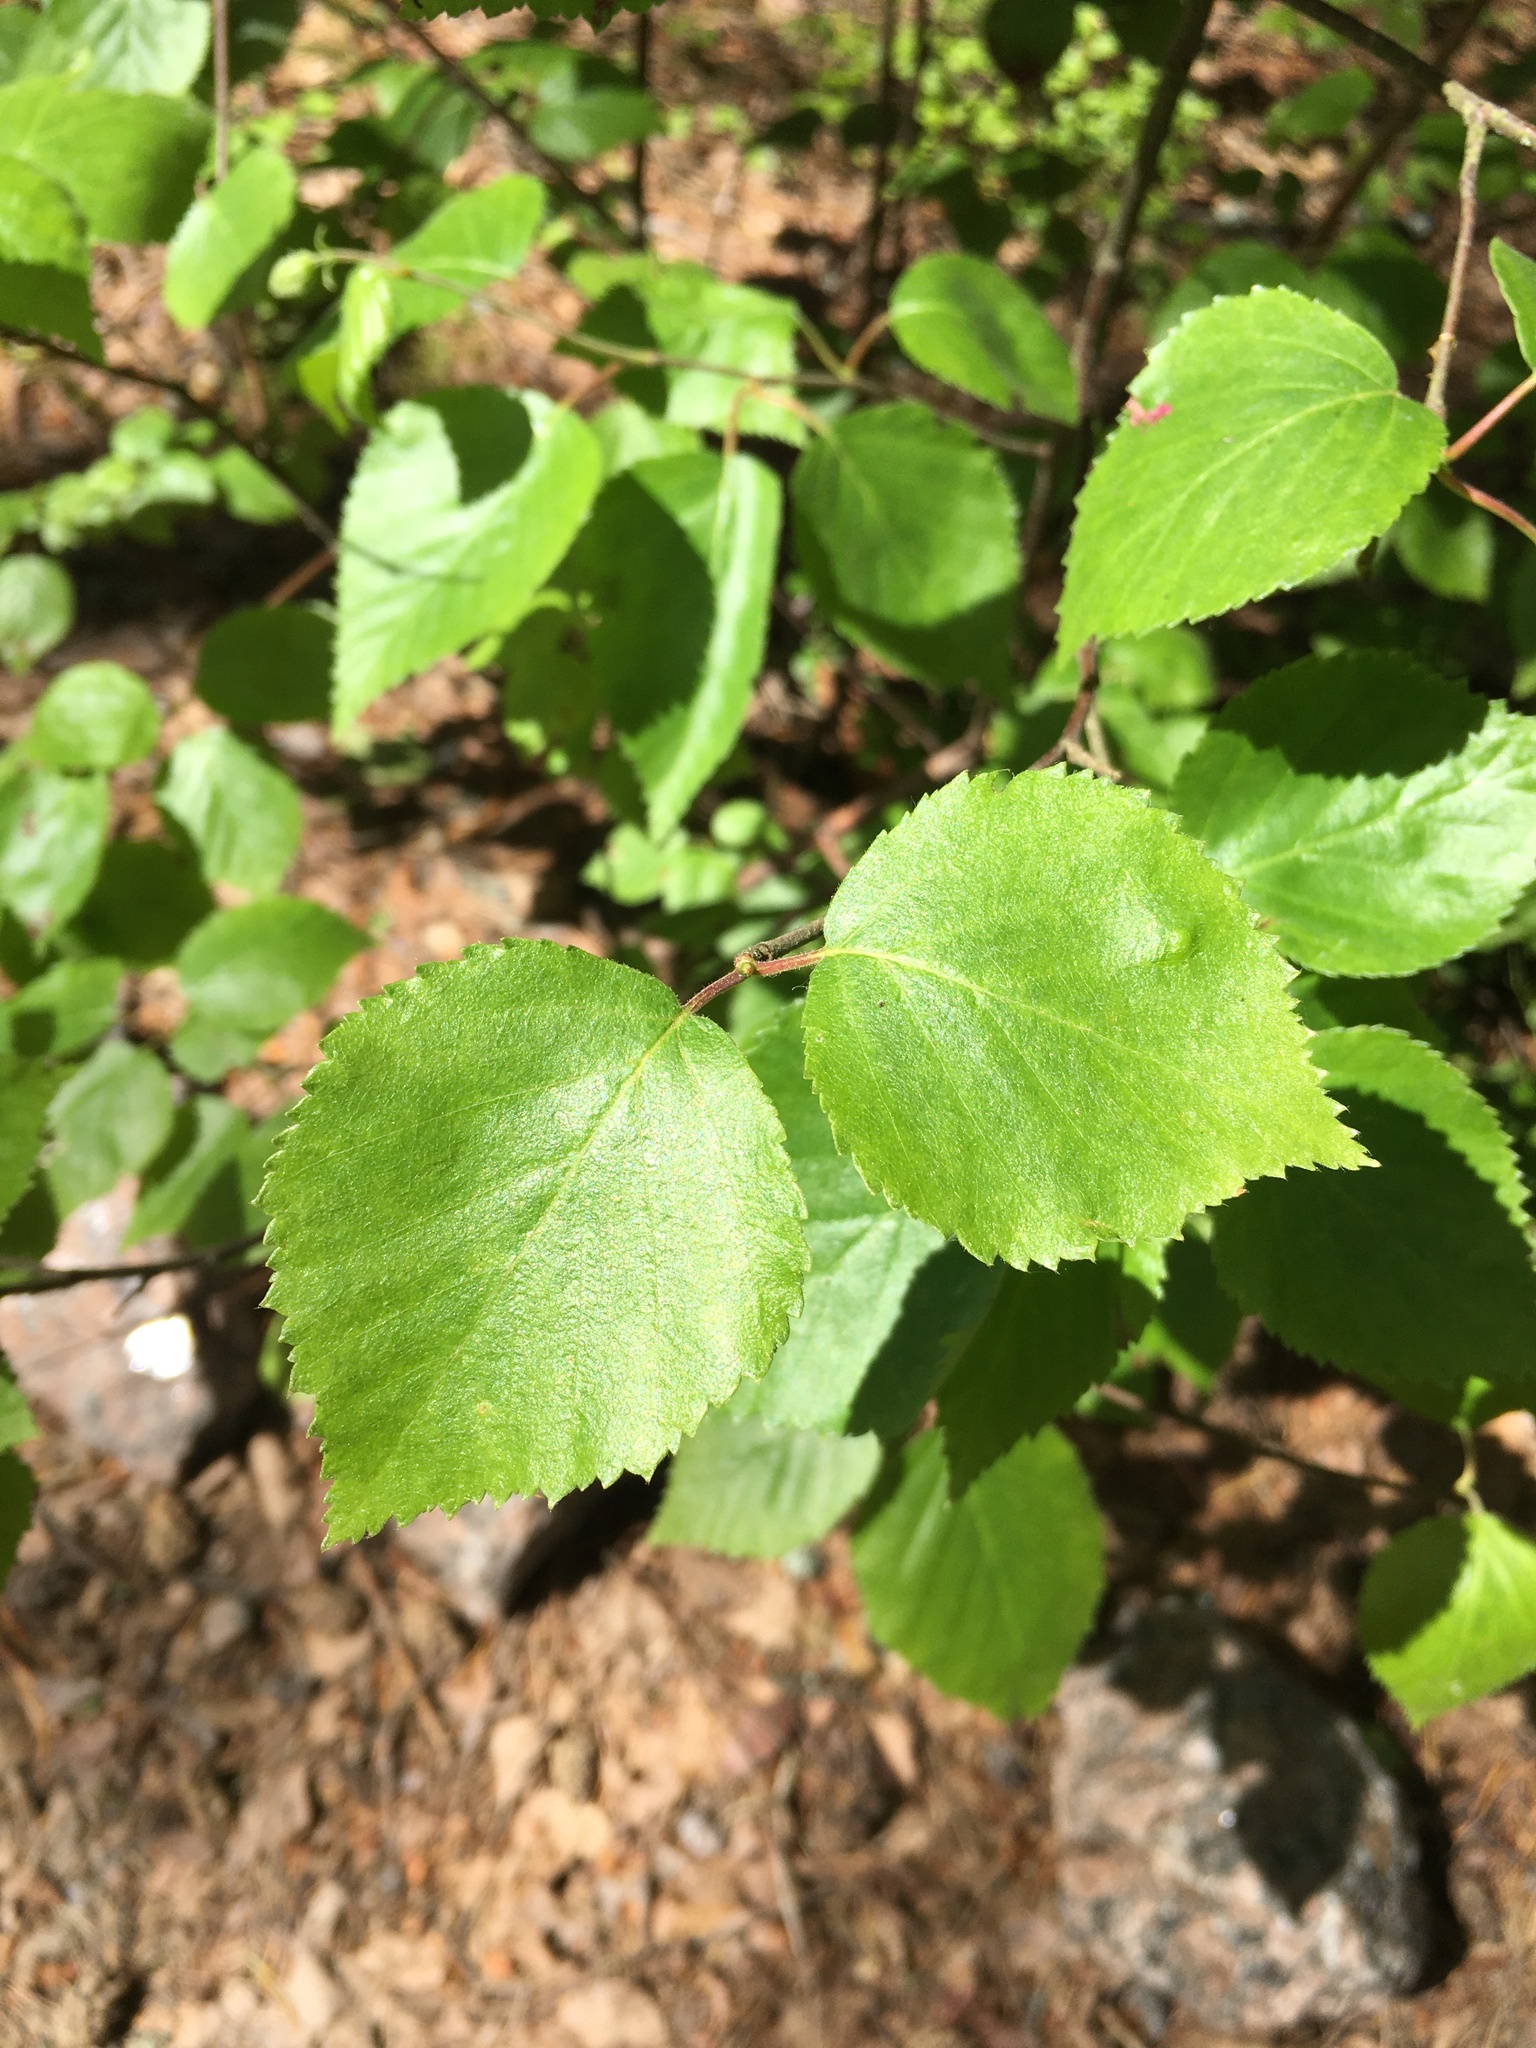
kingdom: Plantae
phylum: Tracheophyta
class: Magnoliopsida
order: Fagales
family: Betulaceae
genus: Betula
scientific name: Betula pubescens
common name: Downy birch
